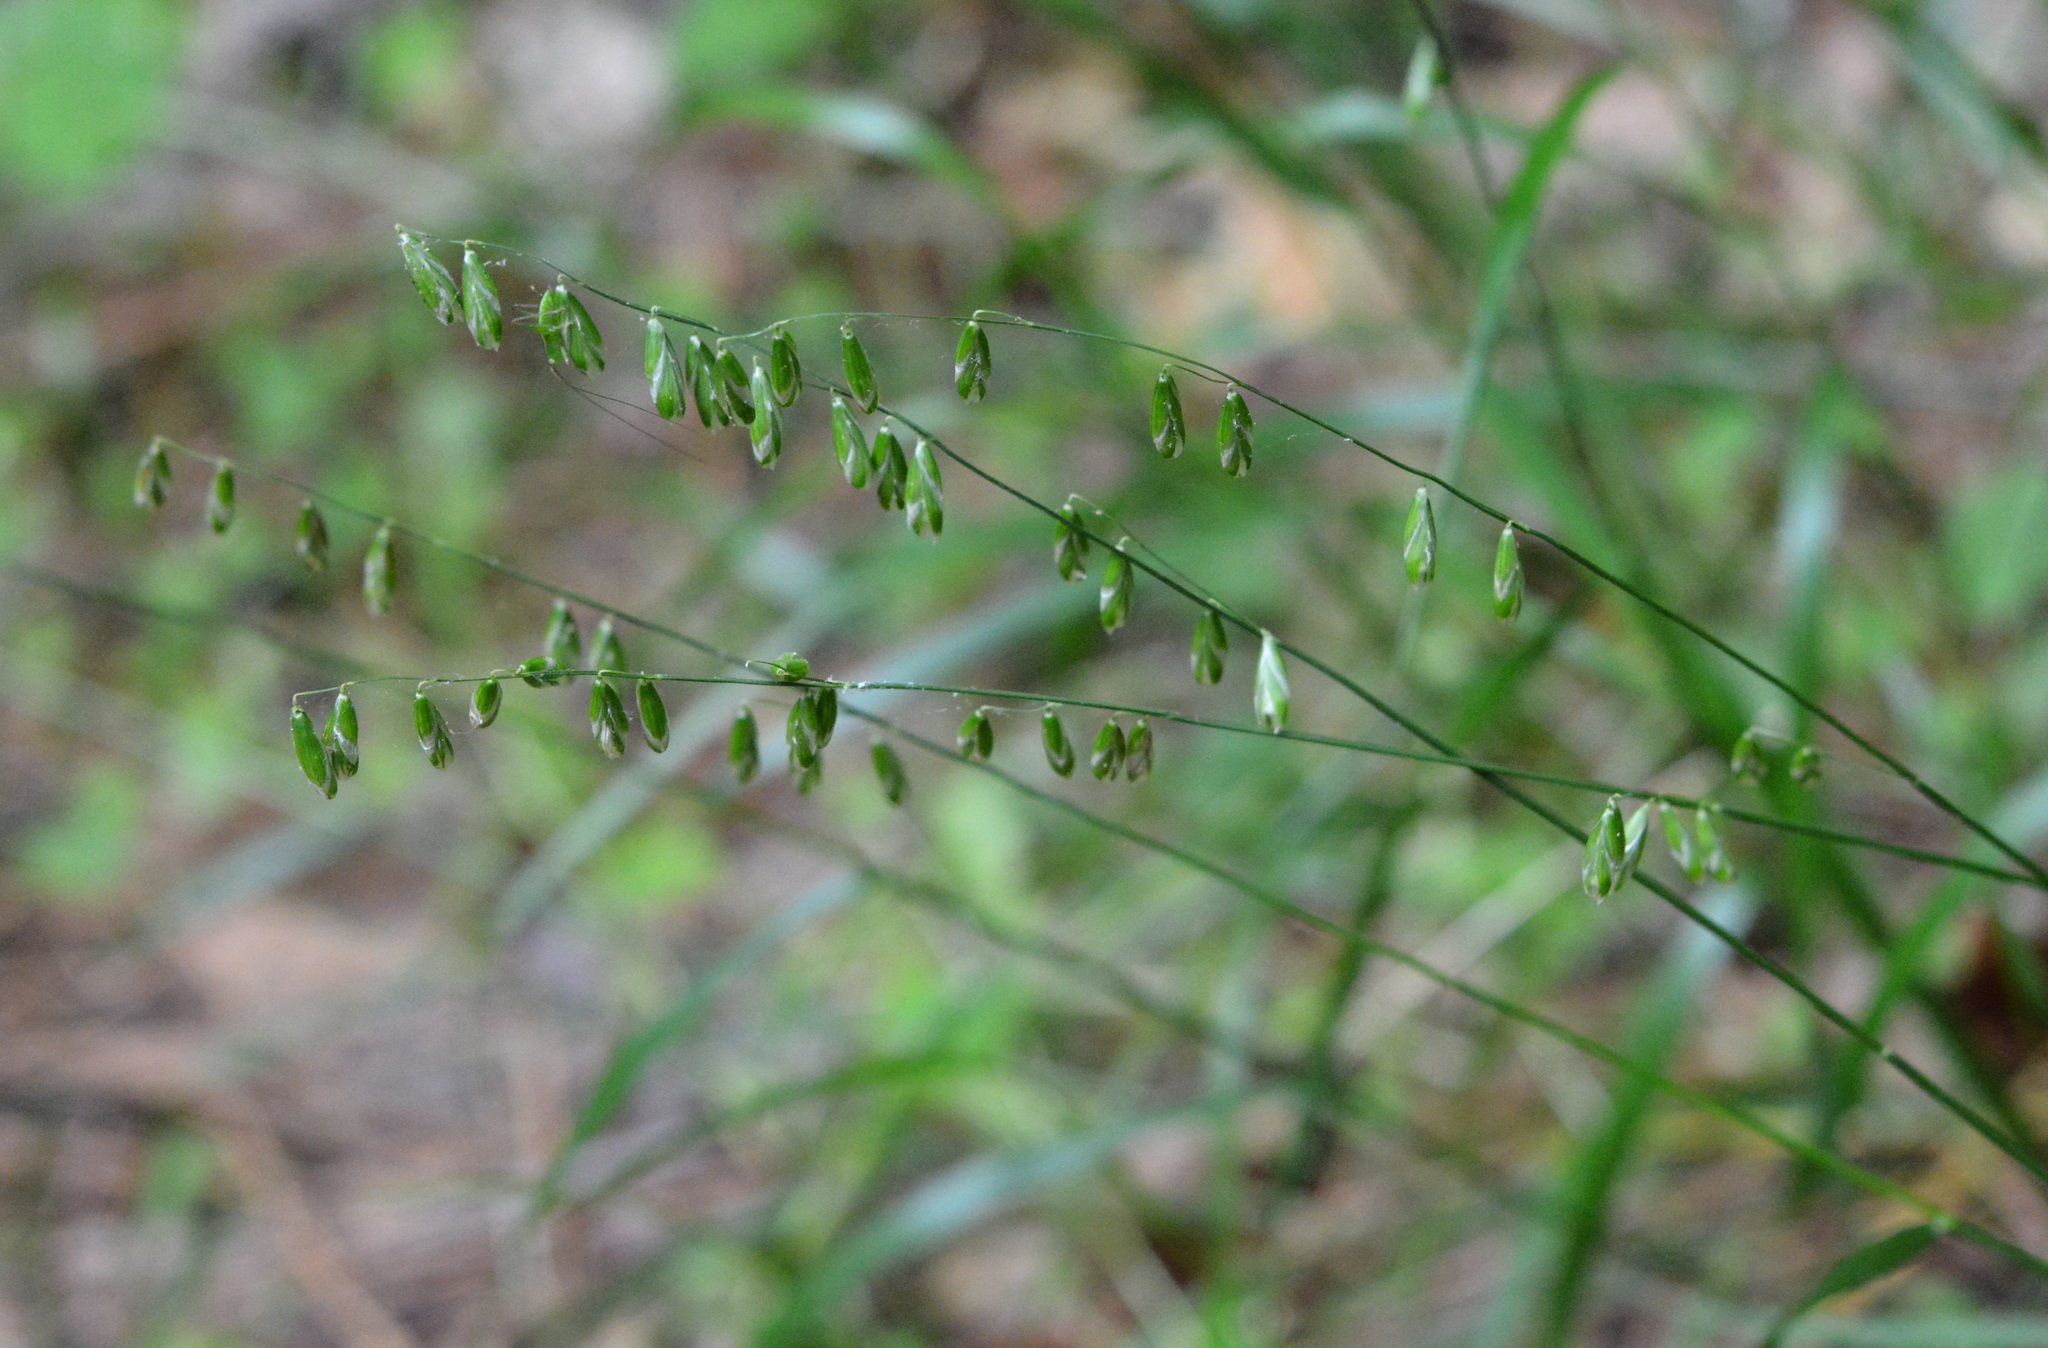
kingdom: Plantae
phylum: Tracheophyta
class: Liliopsida
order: Poales
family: Poaceae
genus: Melica
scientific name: Melica mutica
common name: Two-flower melic
